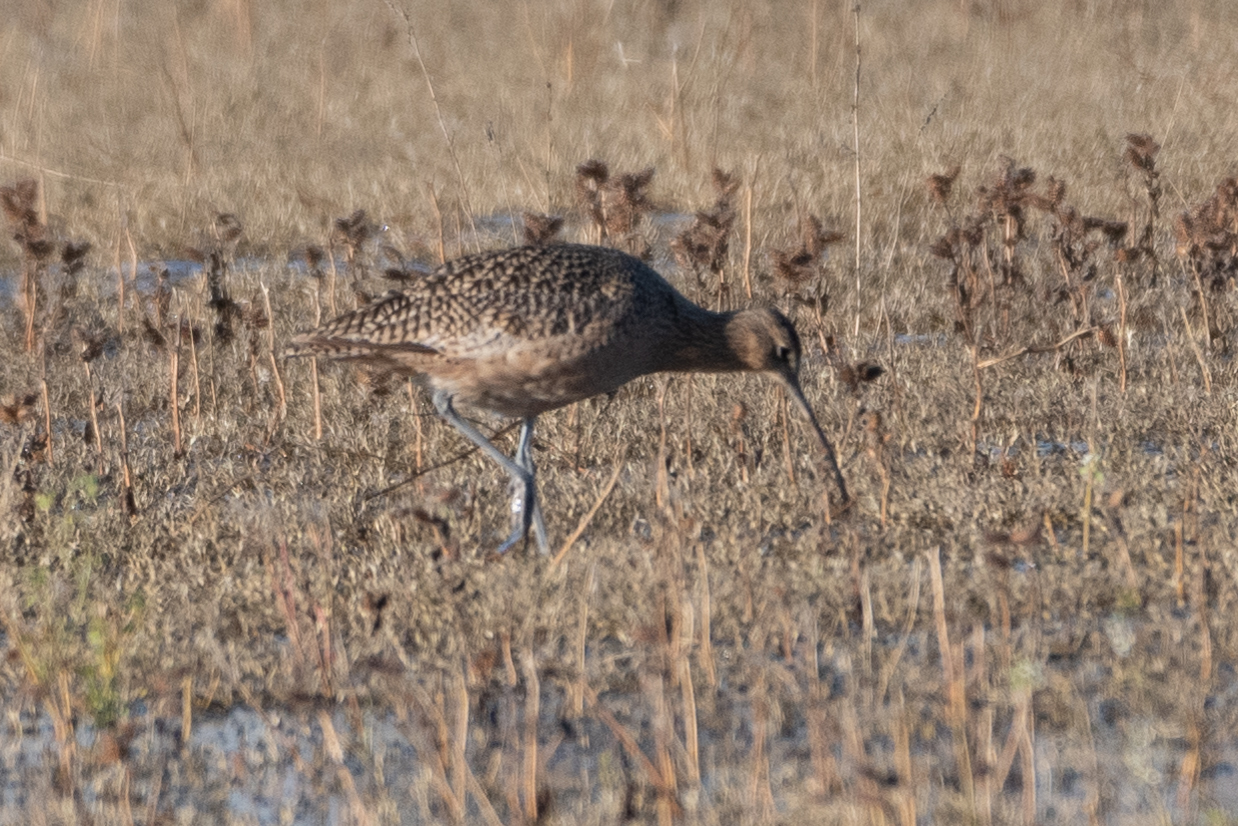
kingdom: Animalia
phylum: Chordata
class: Aves
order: Charadriiformes
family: Scolopacidae
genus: Numenius
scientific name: Numenius americanus
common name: Long-billed curlew
